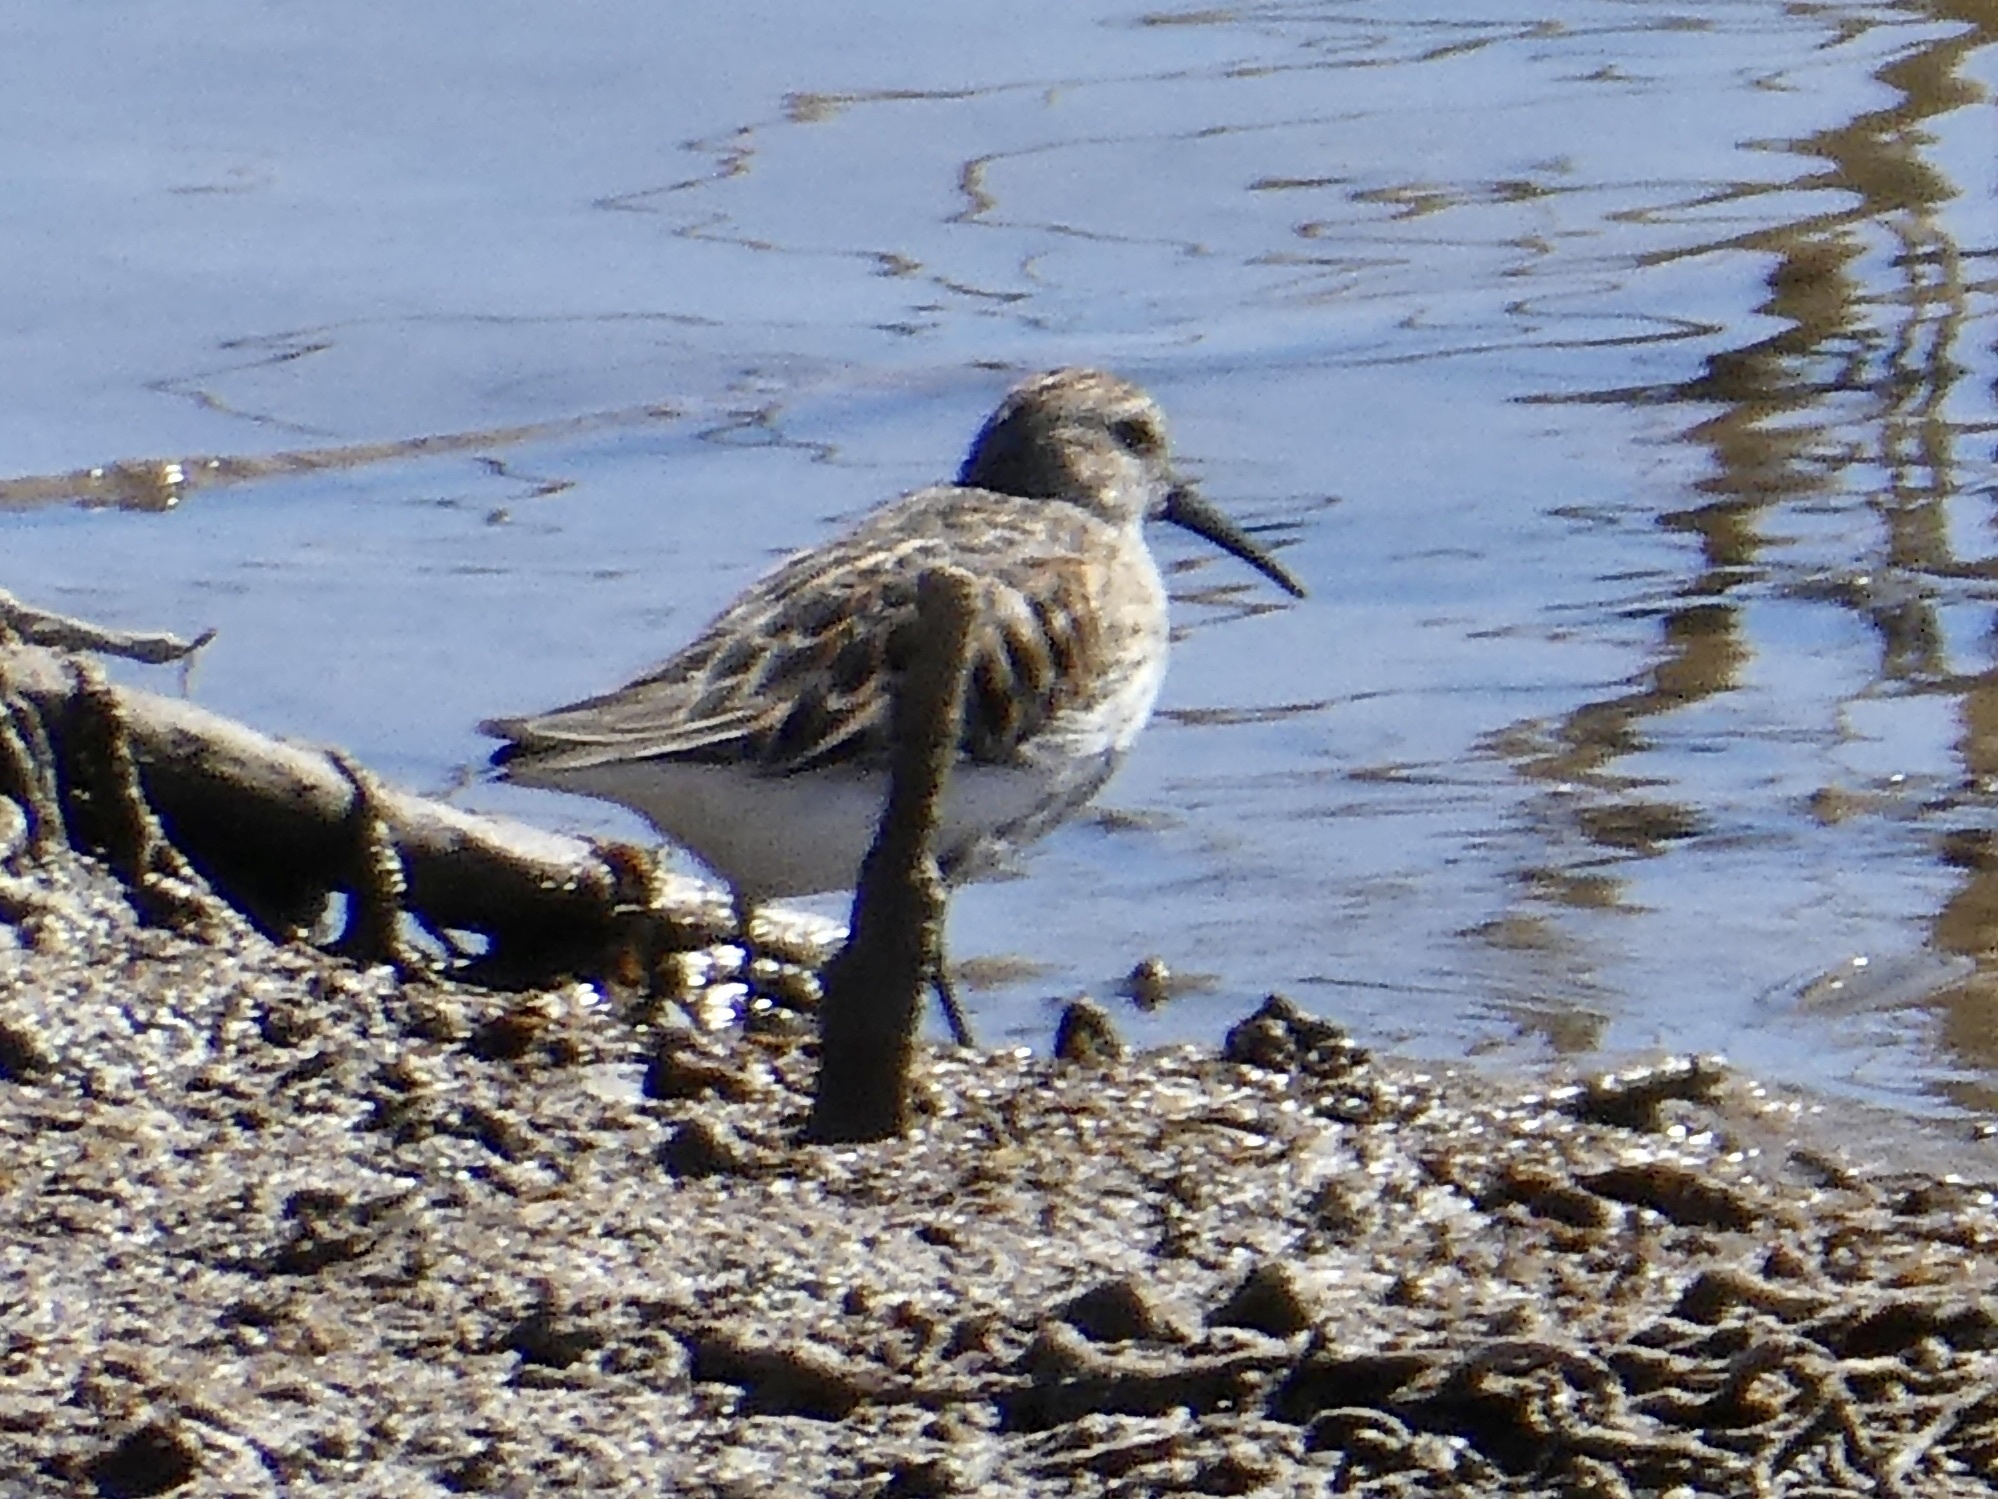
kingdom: Animalia
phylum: Chordata
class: Aves
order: Charadriiformes
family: Scolopacidae
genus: Calidris
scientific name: Calidris alpina
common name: Dunlin
